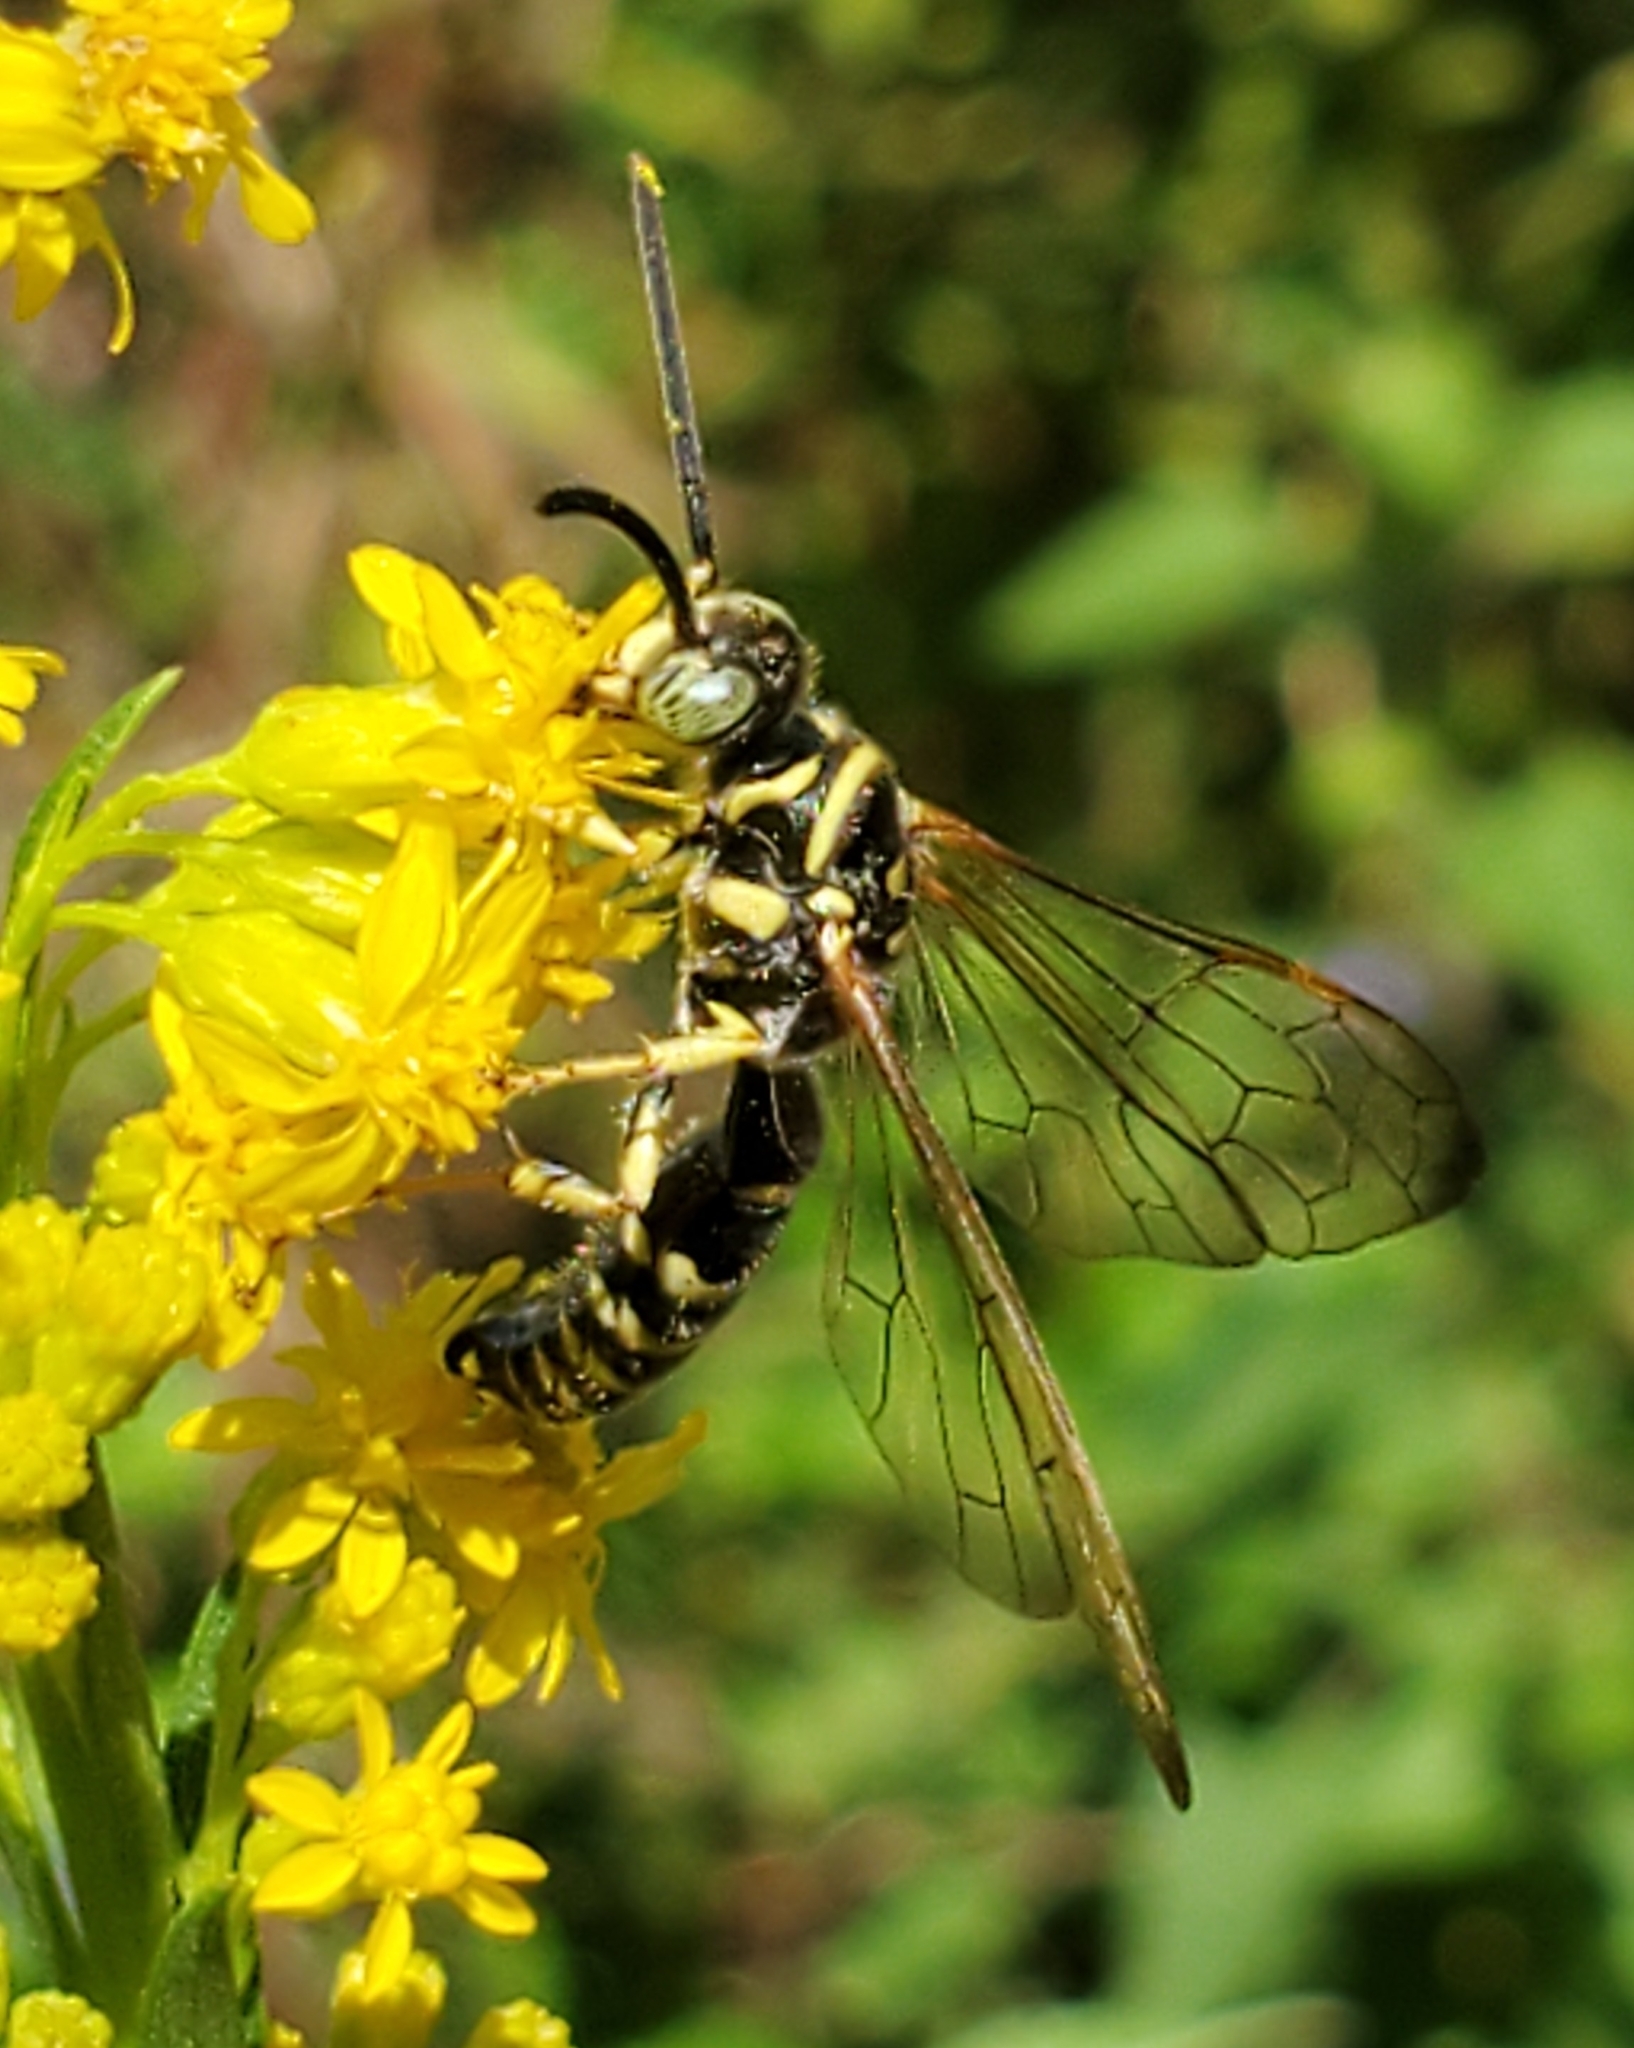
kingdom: Animalia
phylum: Arthropoda
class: Insecta
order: Hymenoptera
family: Tiphiidae
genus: Myzinum
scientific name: Myzinum
